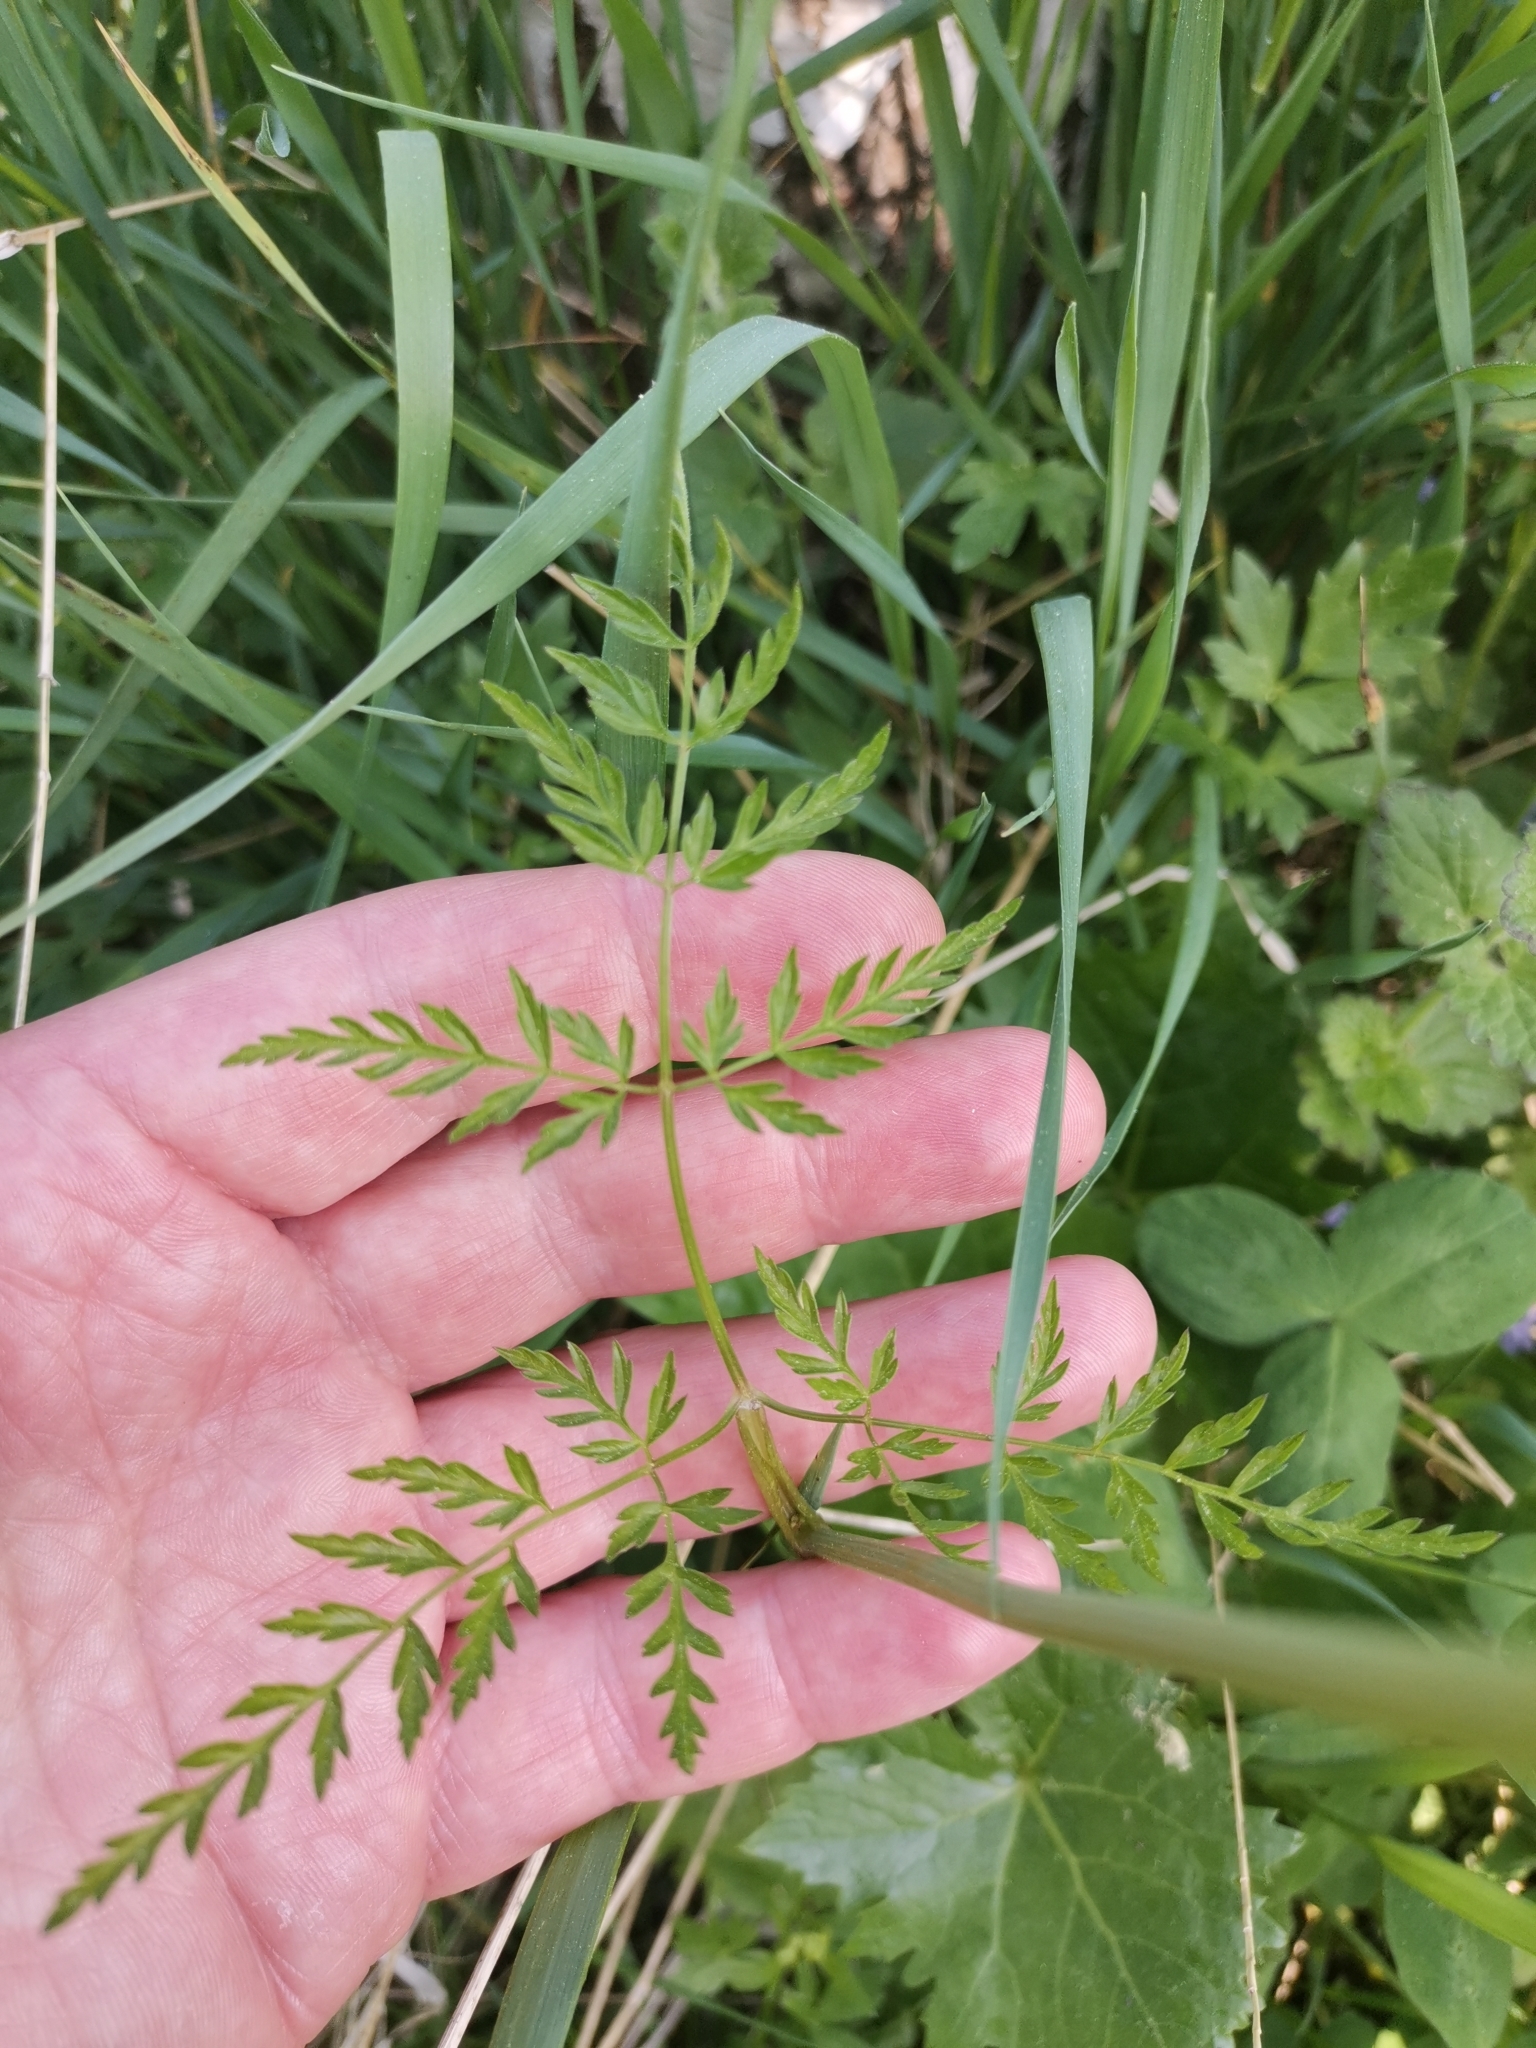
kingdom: Plantae
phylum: Tracheophyta
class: Magnoliopsida
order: Apiales
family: Apiaceae
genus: Anthriscus
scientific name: Anthriscus sylvestris
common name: Cow parsley
